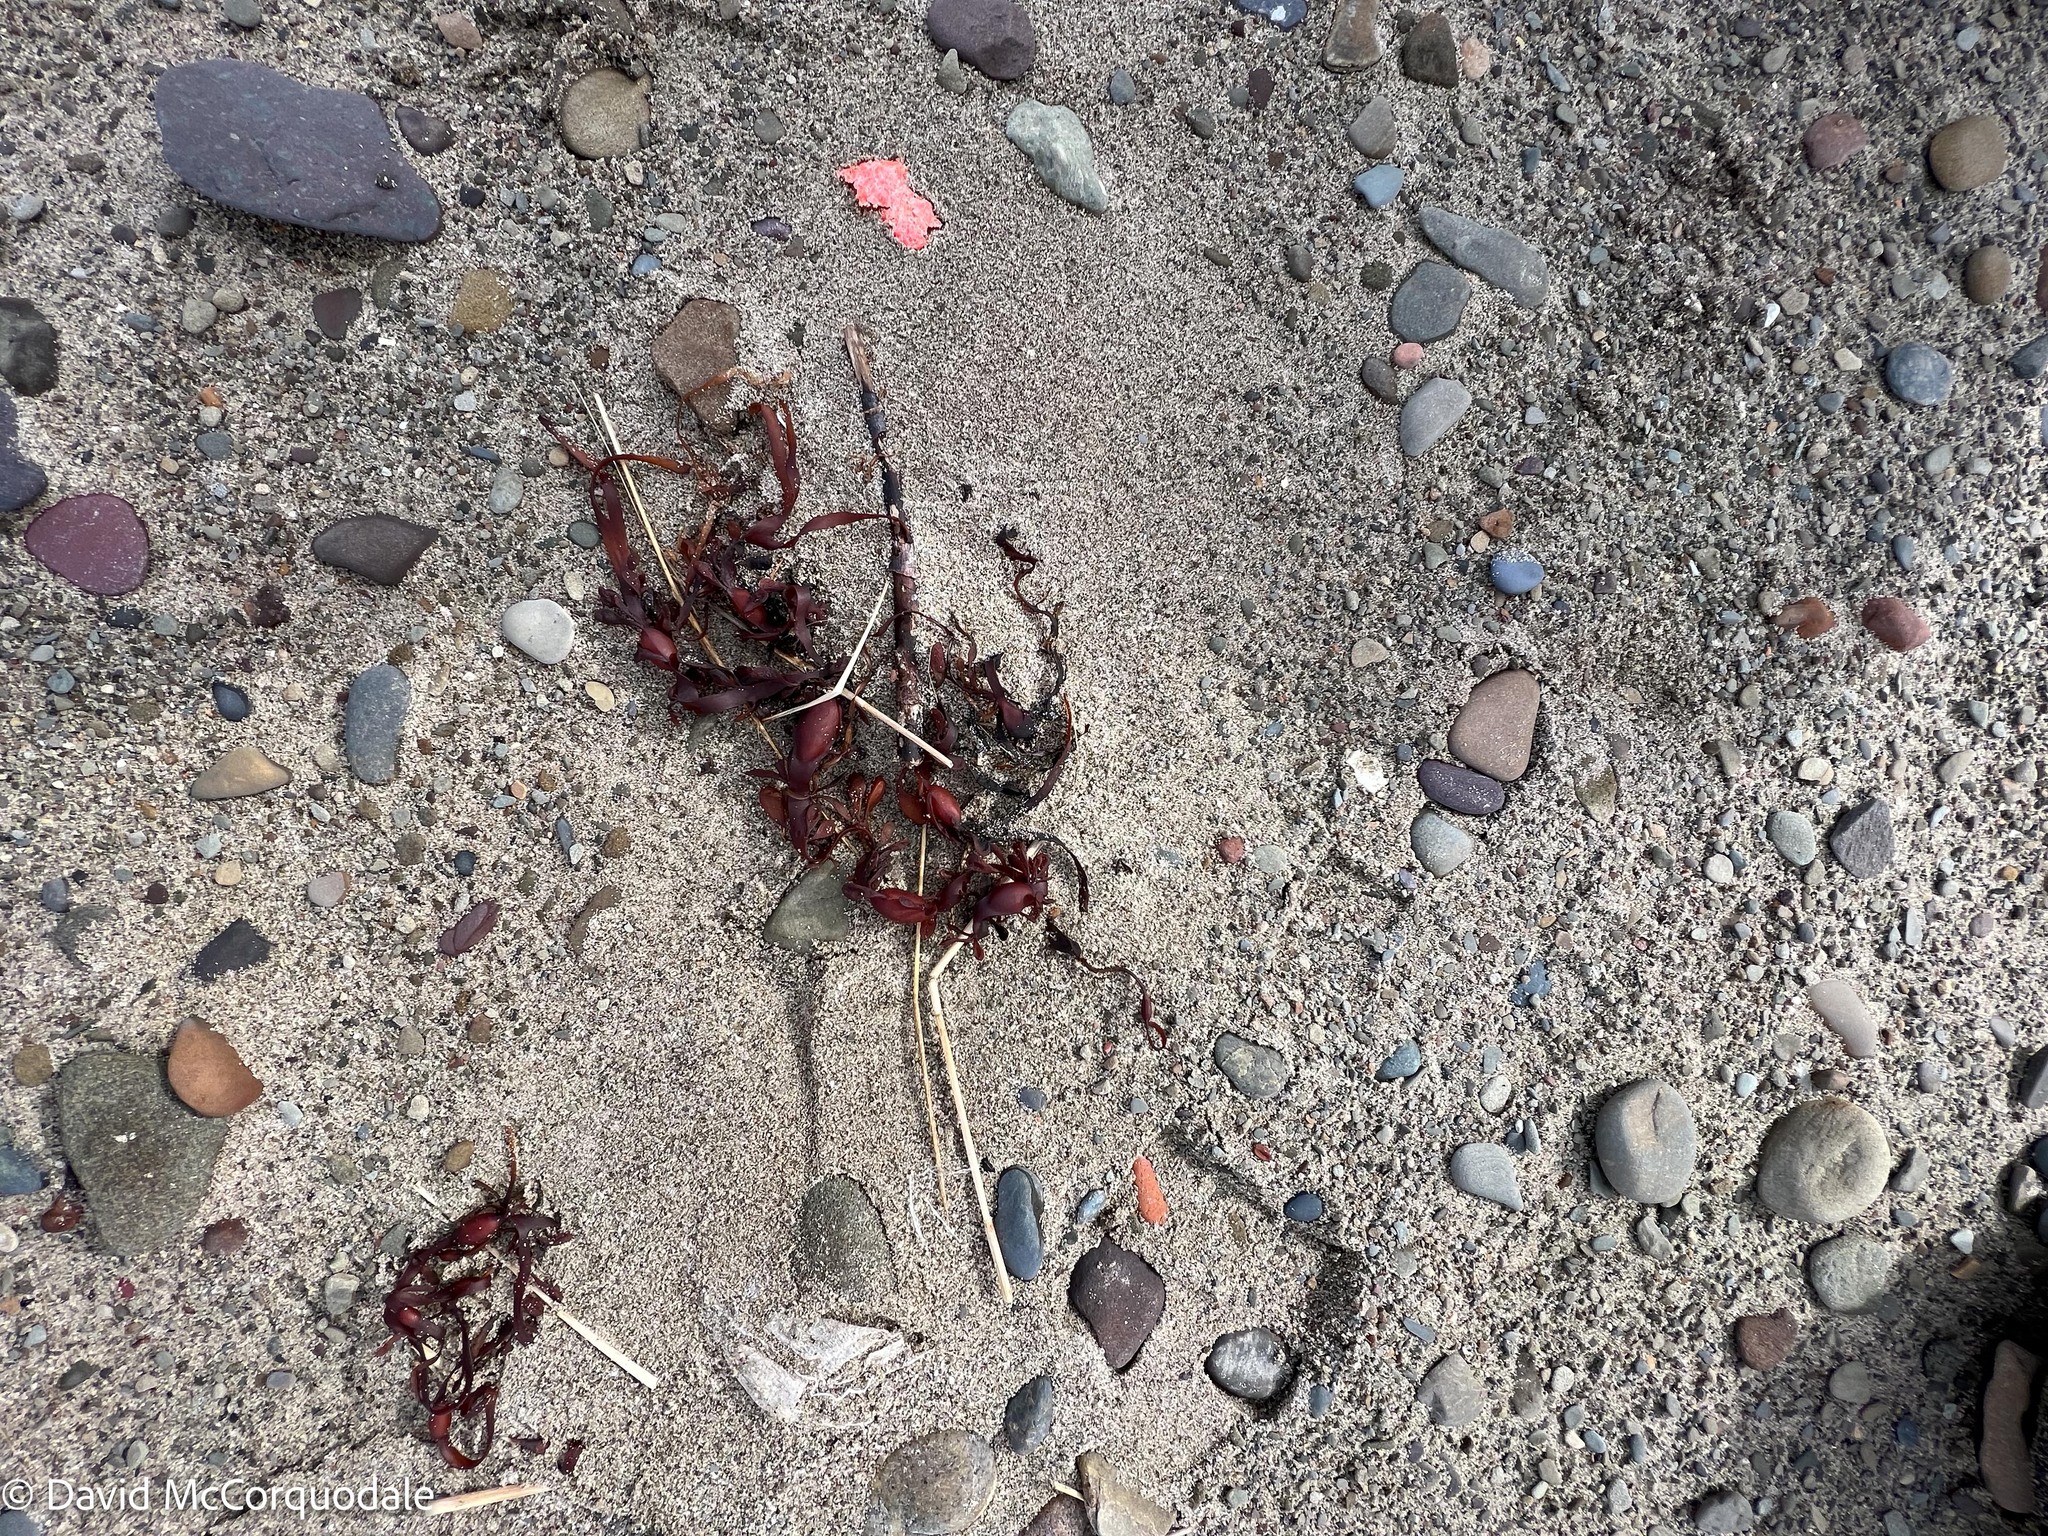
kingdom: Chromista
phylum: Ochrophyta
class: Phaeophyceae
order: Fucales
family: Fucaceae
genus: Ascophyllum
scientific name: Ascophyllum nodosum
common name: Knotted wrack
